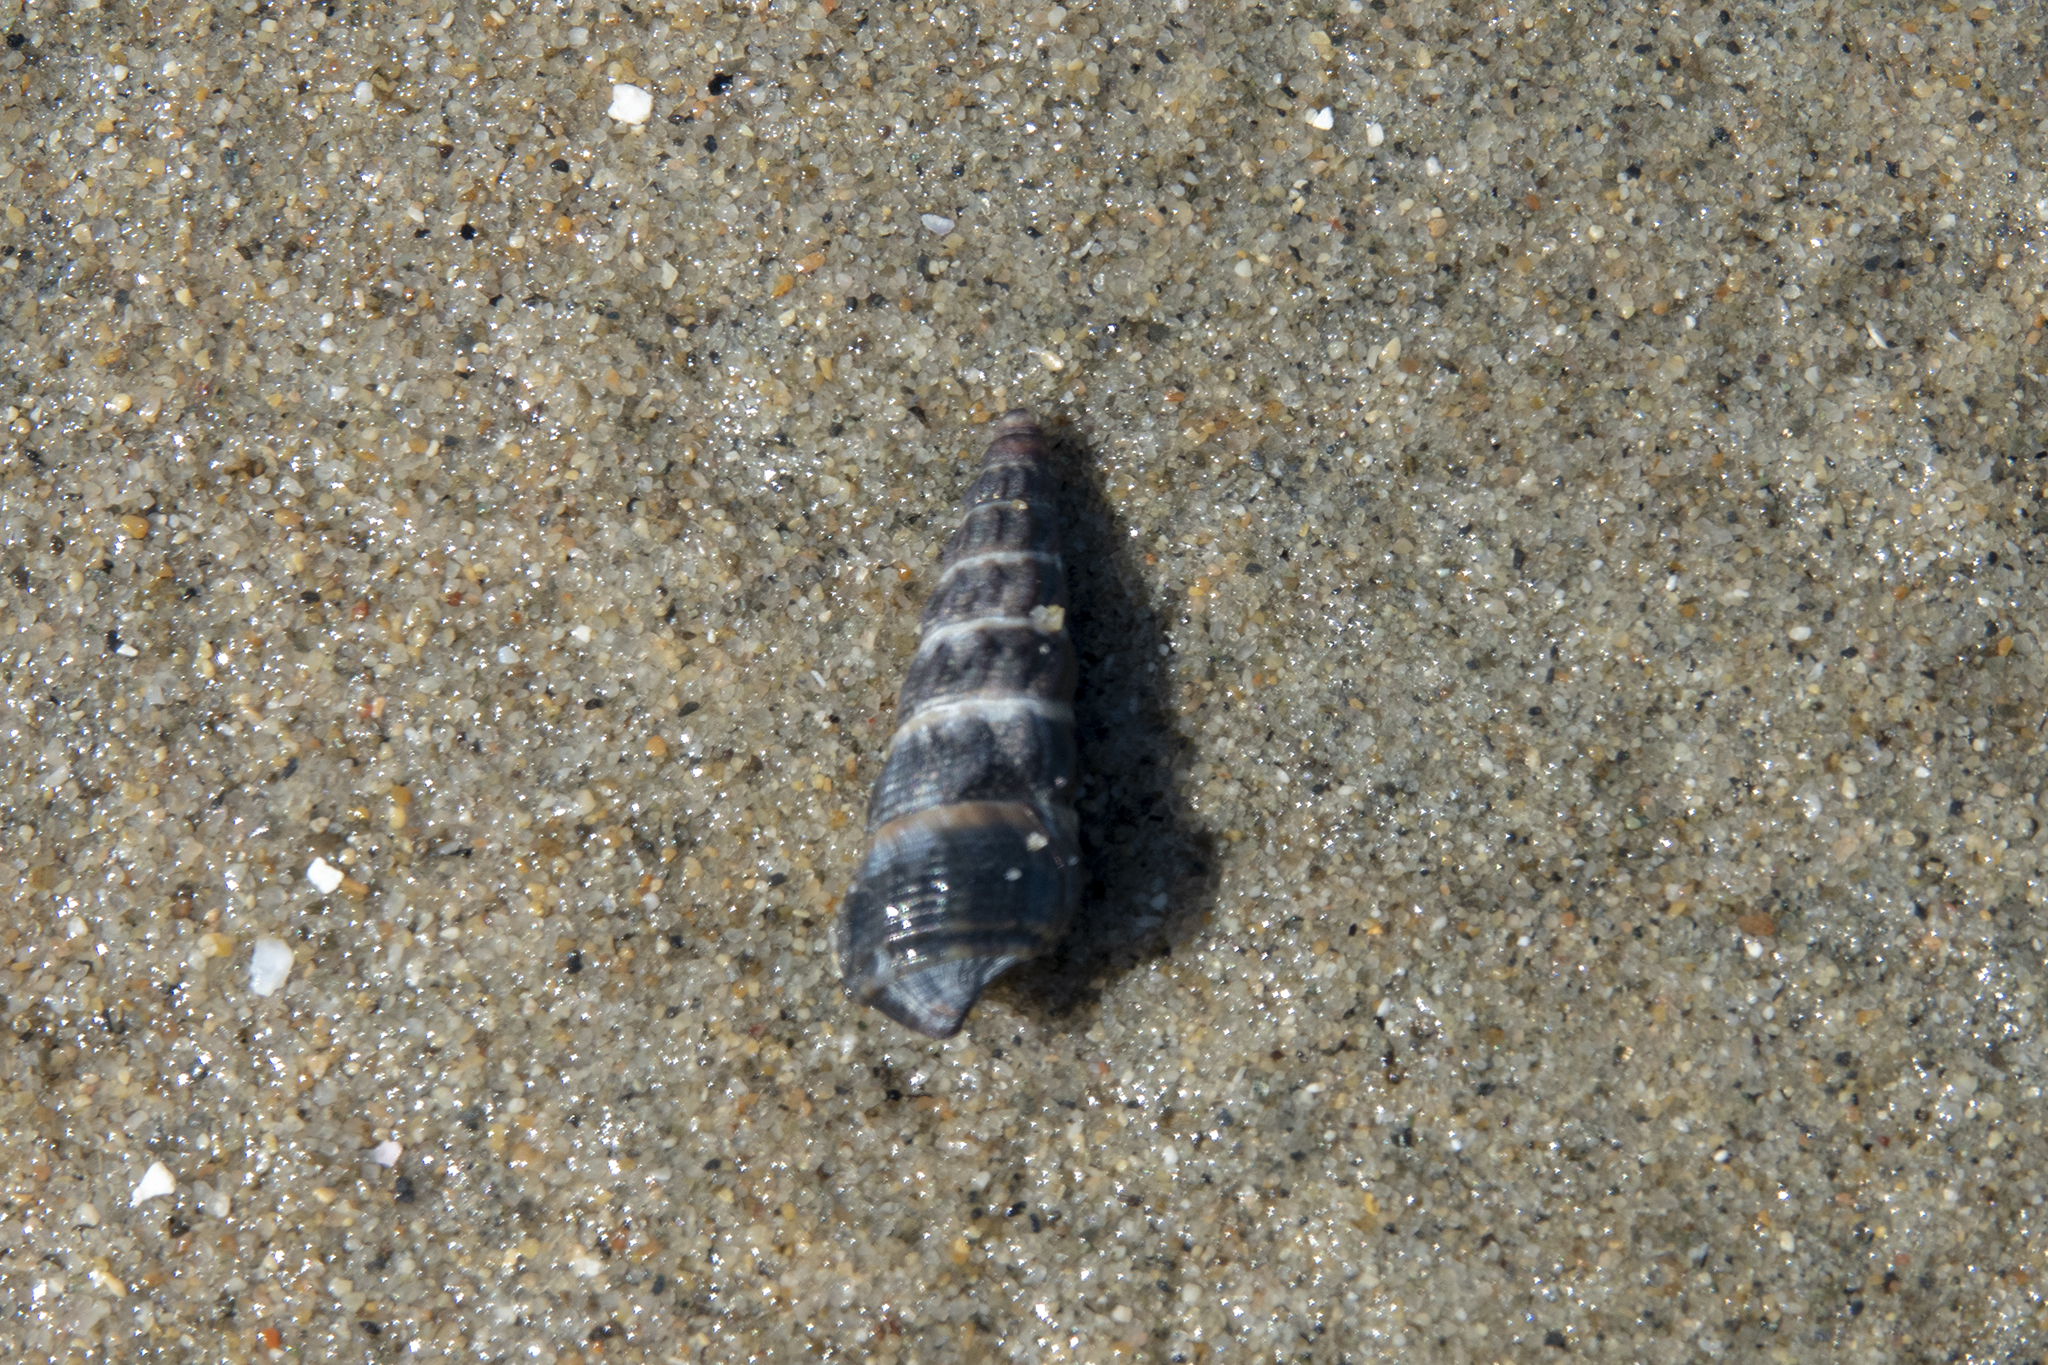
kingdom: Animalia
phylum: Mollusca
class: Gastropoda
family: Batillariidae
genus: Zeacumantus
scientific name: Zeacumantus lutulentus
